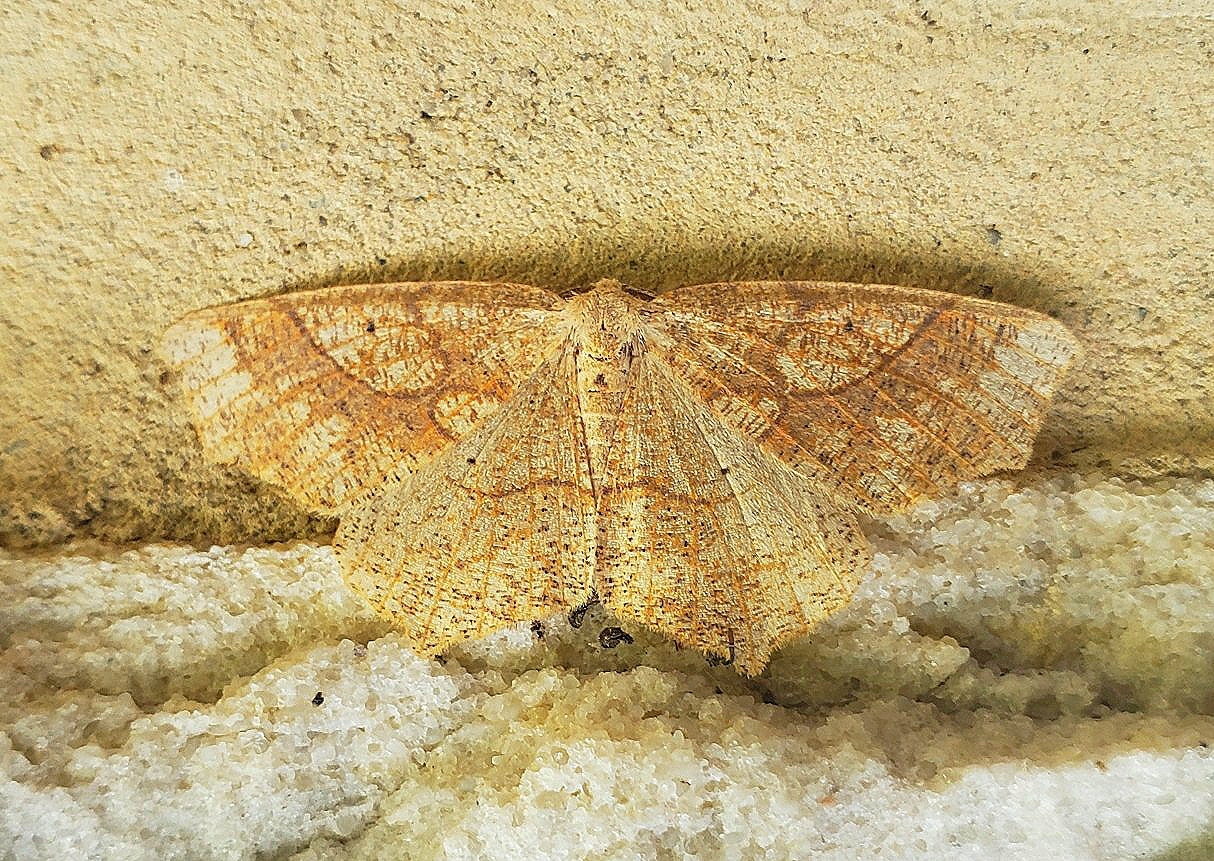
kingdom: Animalia
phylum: Arthropoda
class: Insecta
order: Lepidoptera
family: Geometridae
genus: Besma
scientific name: Besma quercivoraria
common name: Oak besma
